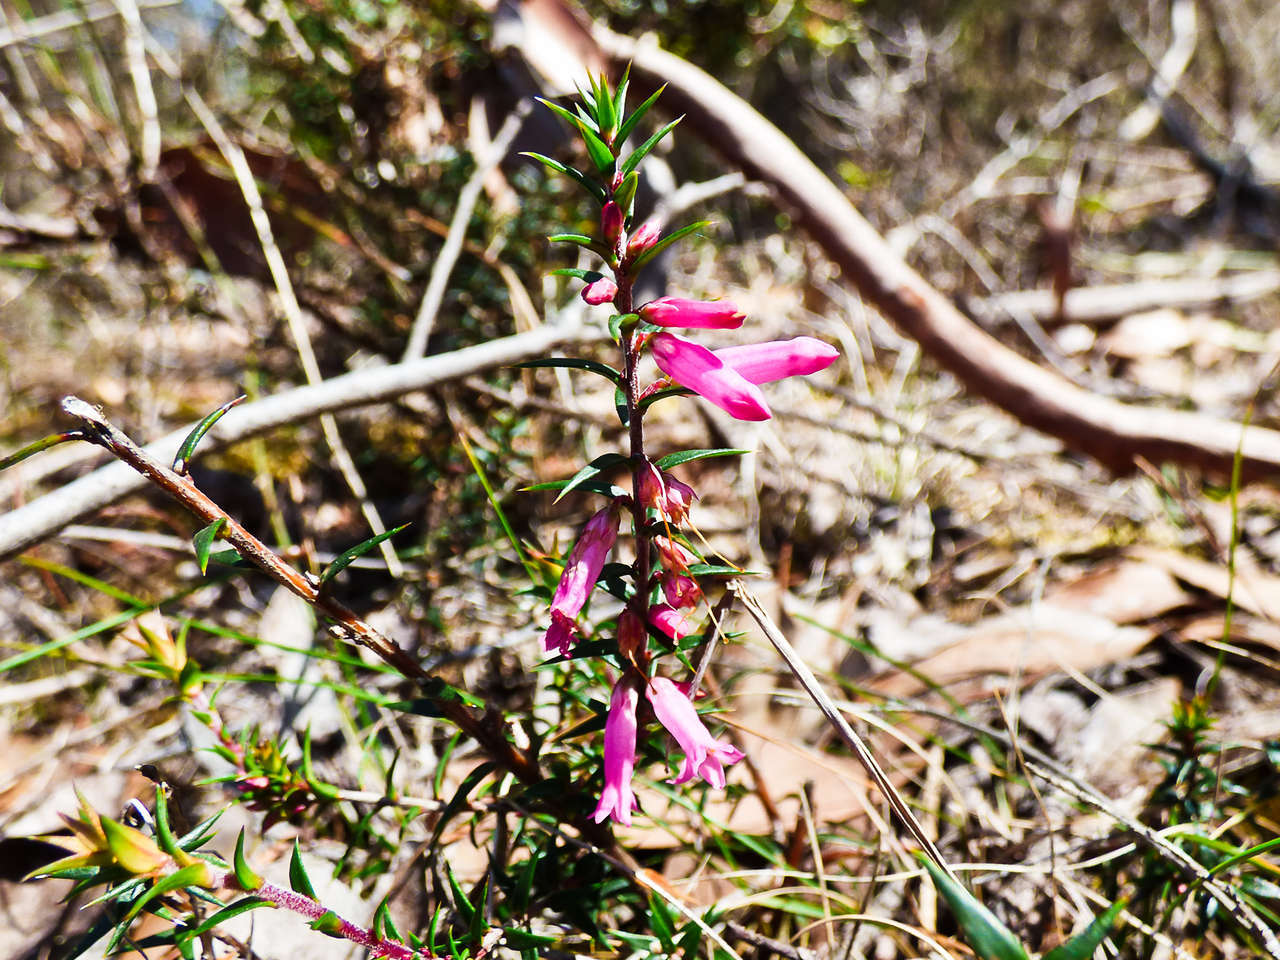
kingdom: Plantae
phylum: Tracheophyta
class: Magnoliopsida
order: Ericales
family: Ericaceae
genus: Epacris
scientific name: Epacris impressa
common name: Common-heath
